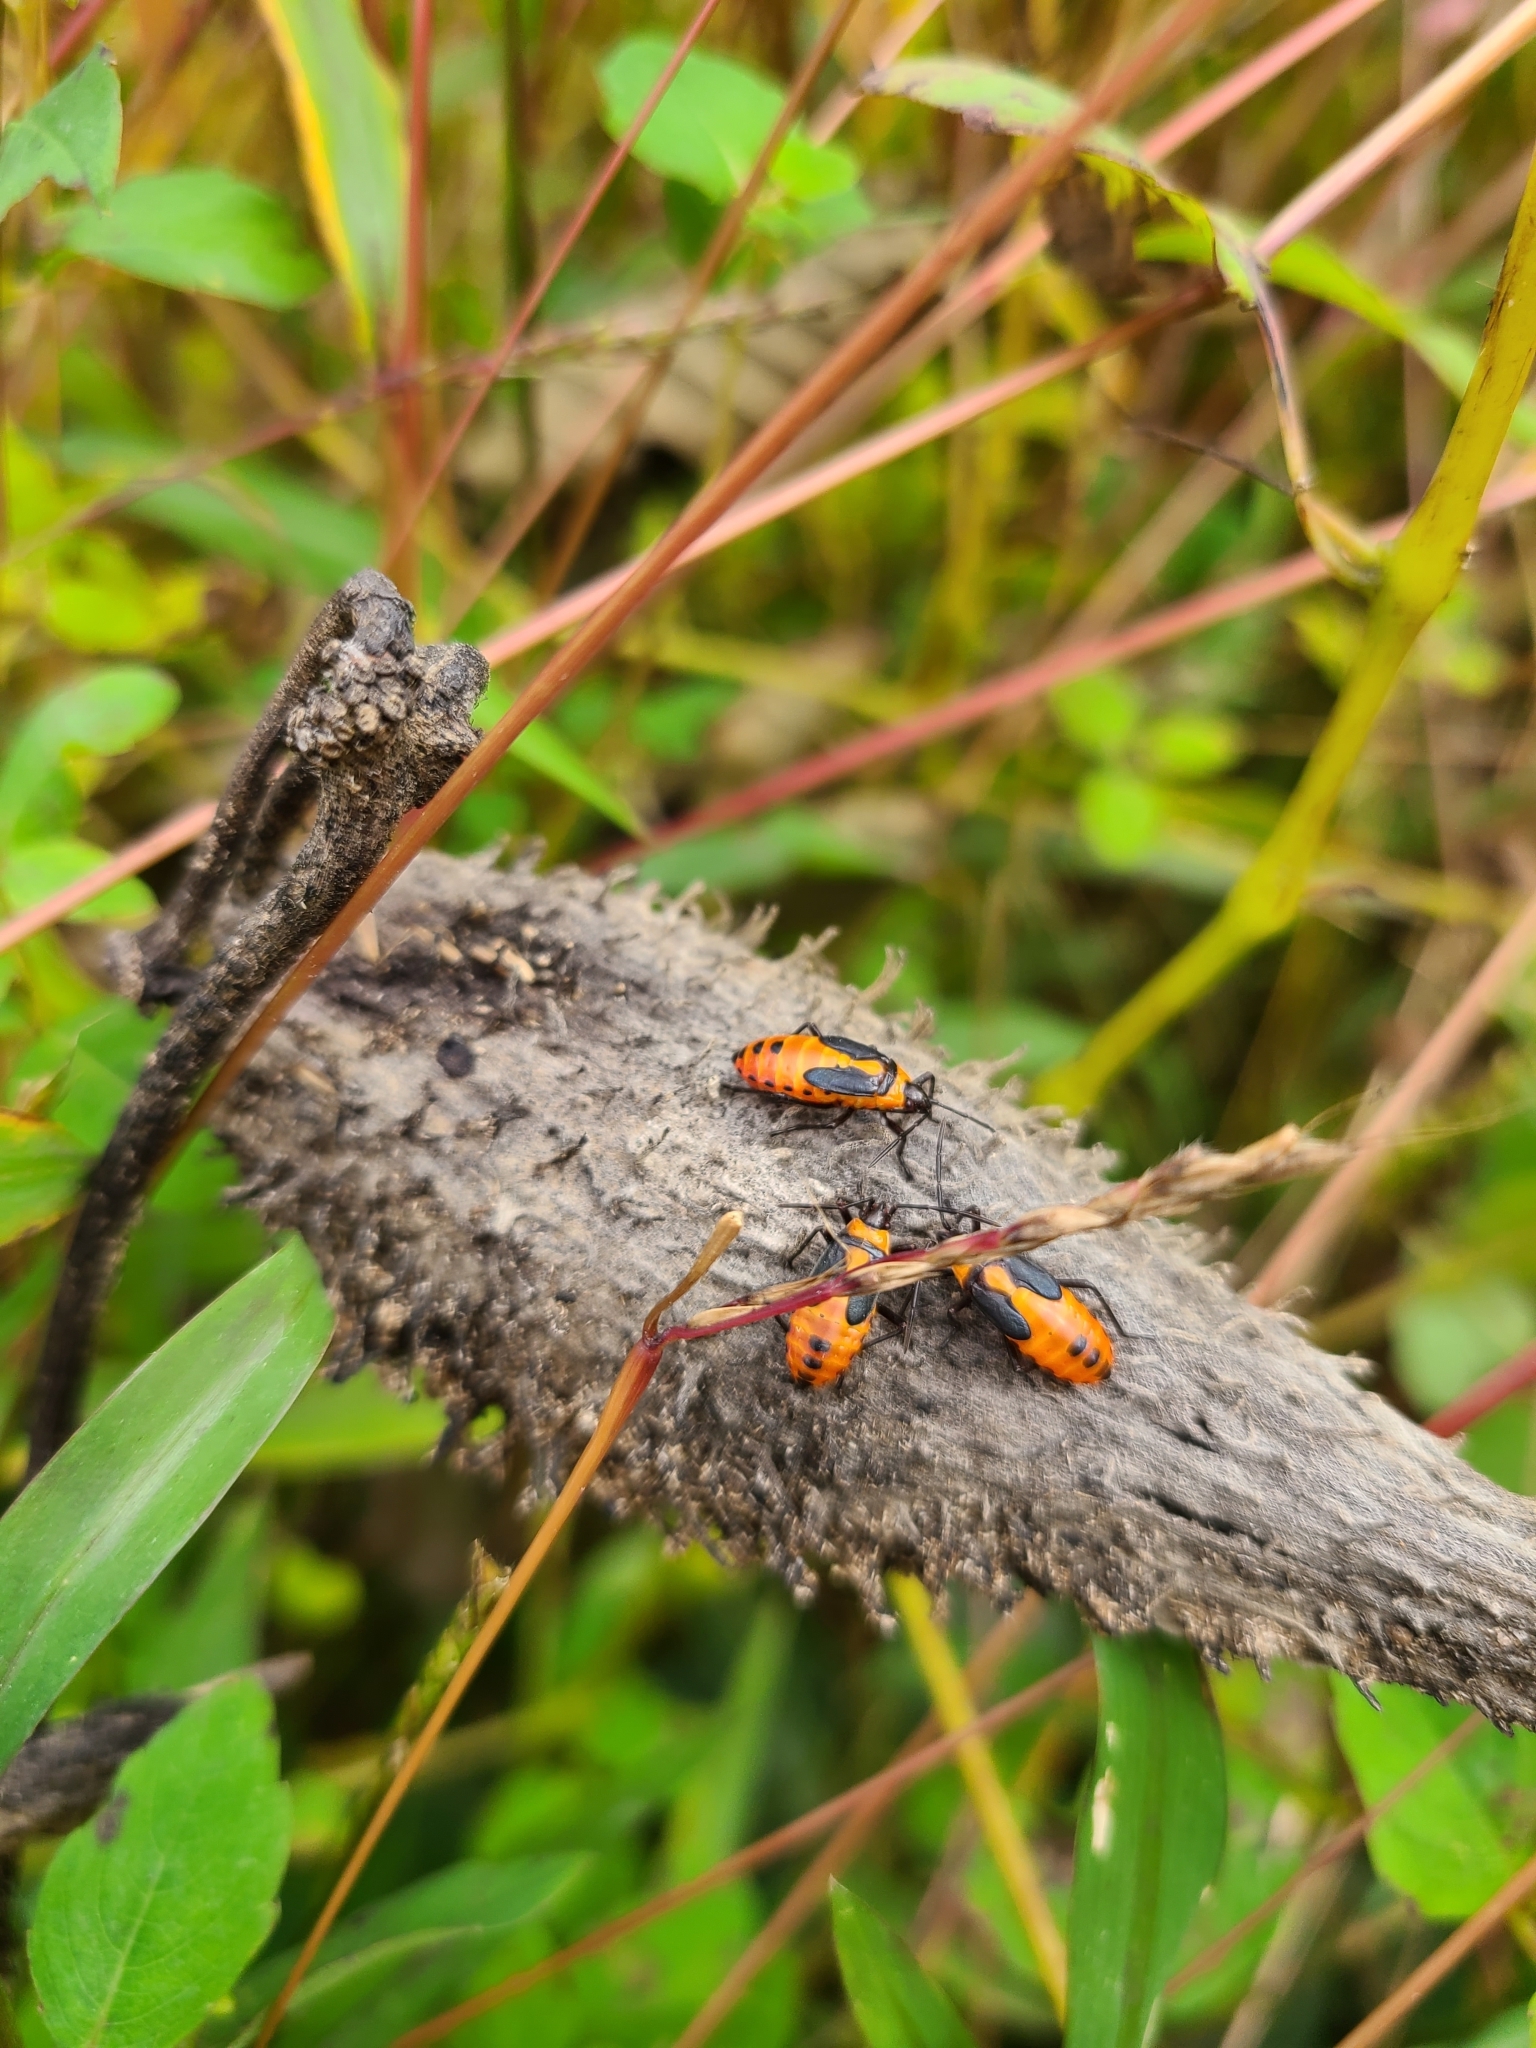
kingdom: Animalia
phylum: Arthropoda
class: Insecta
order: Hemiptera
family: Lygaeidae
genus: Oncopeltus
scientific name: Oncopeltus fasciatus
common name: Large milkweed bug
